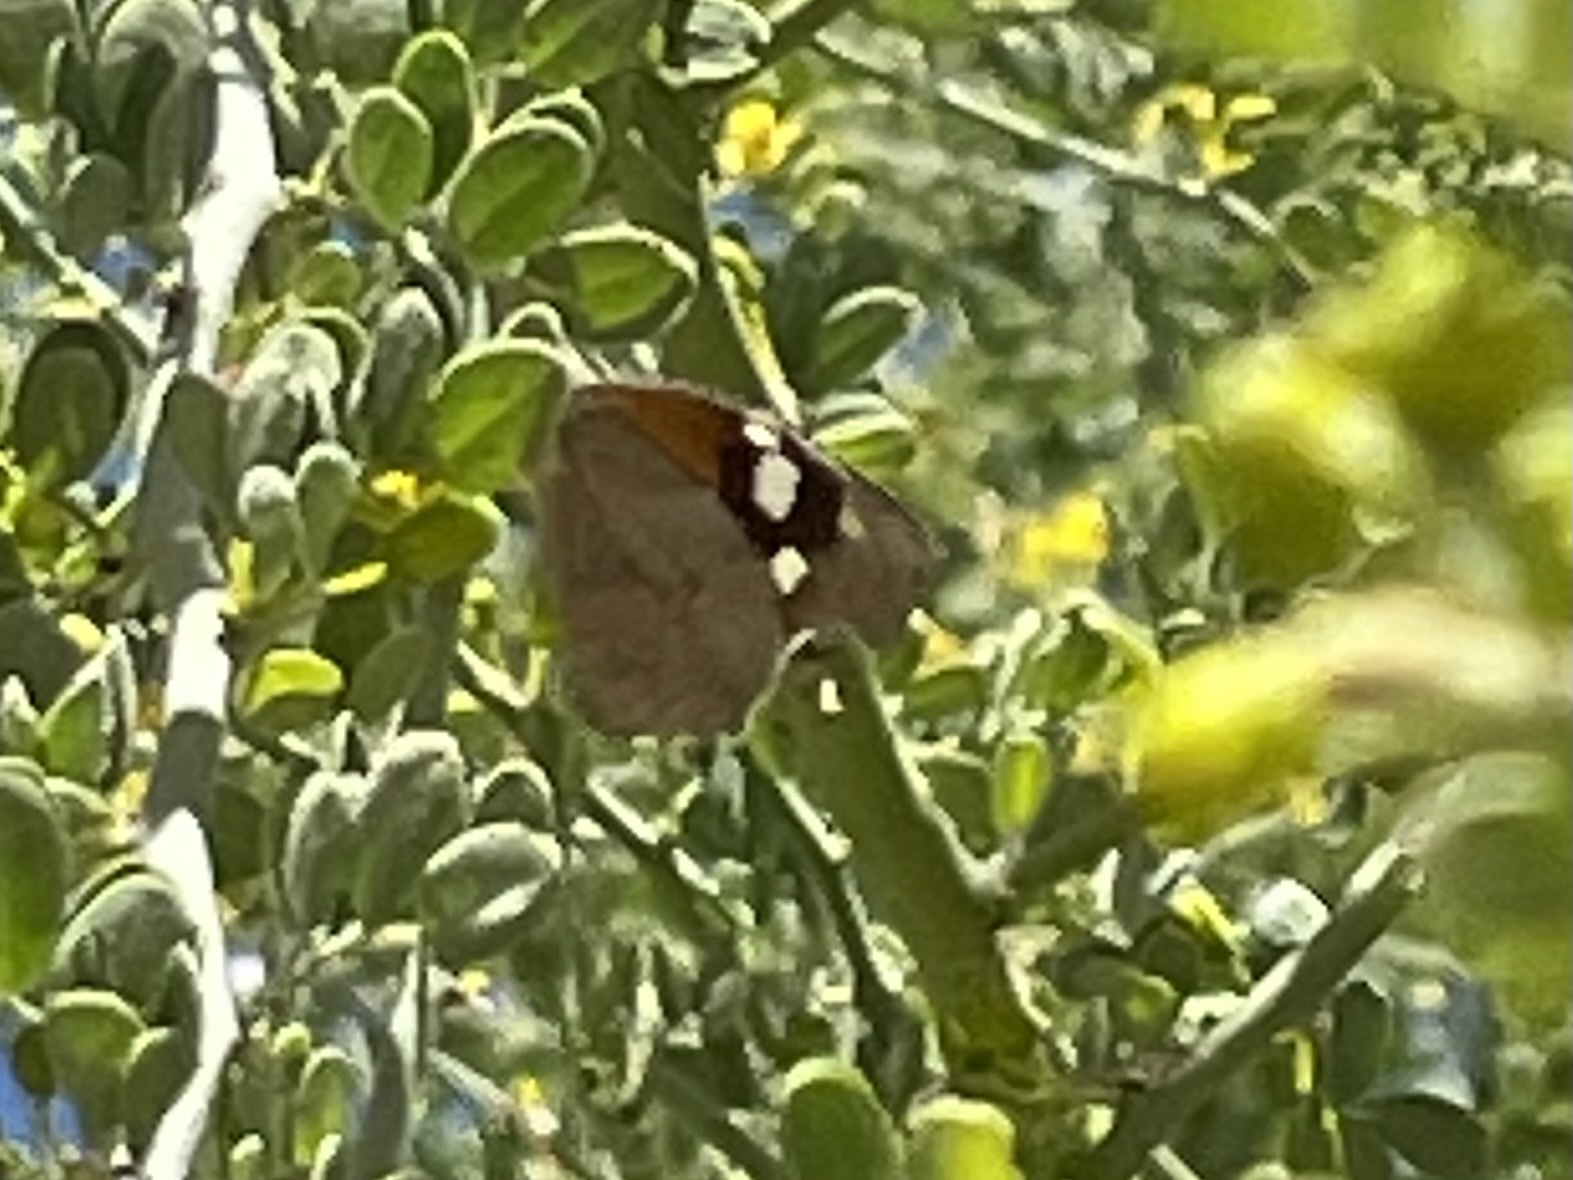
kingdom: Animalia
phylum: Arthropoda
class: Insecta
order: Lepidoptera
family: Nymphalidae
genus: Libytheana
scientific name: Libytheana carinenta
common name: American snout
